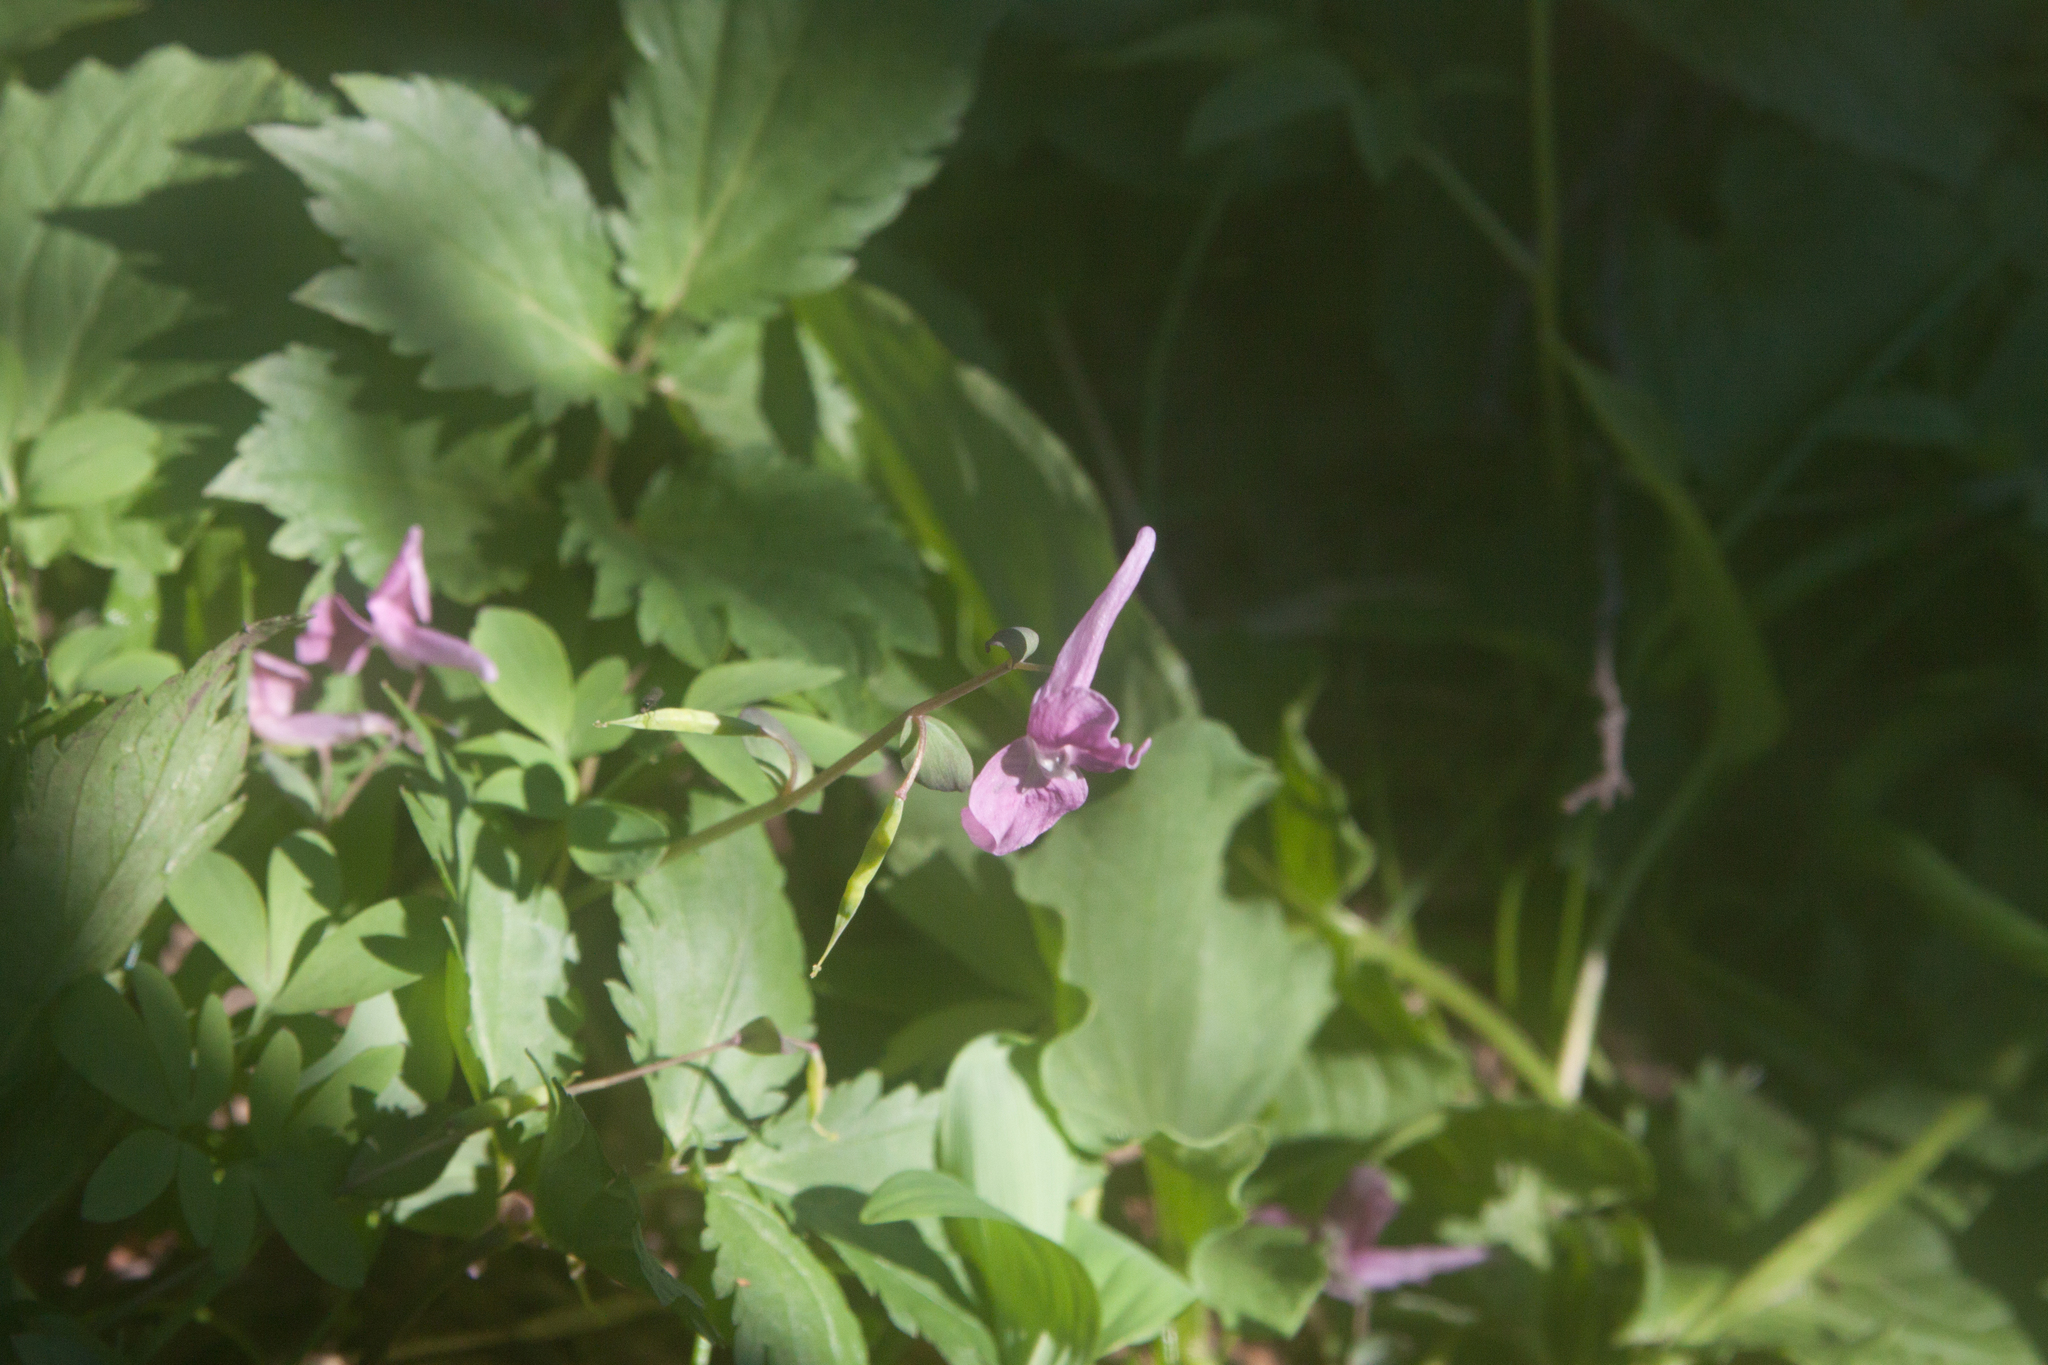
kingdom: Plantae
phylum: Tracheophyta
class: Magnoliopsida
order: Ranunculales
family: Papaveraceae
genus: Corydalis
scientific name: Corydalis caucasica
